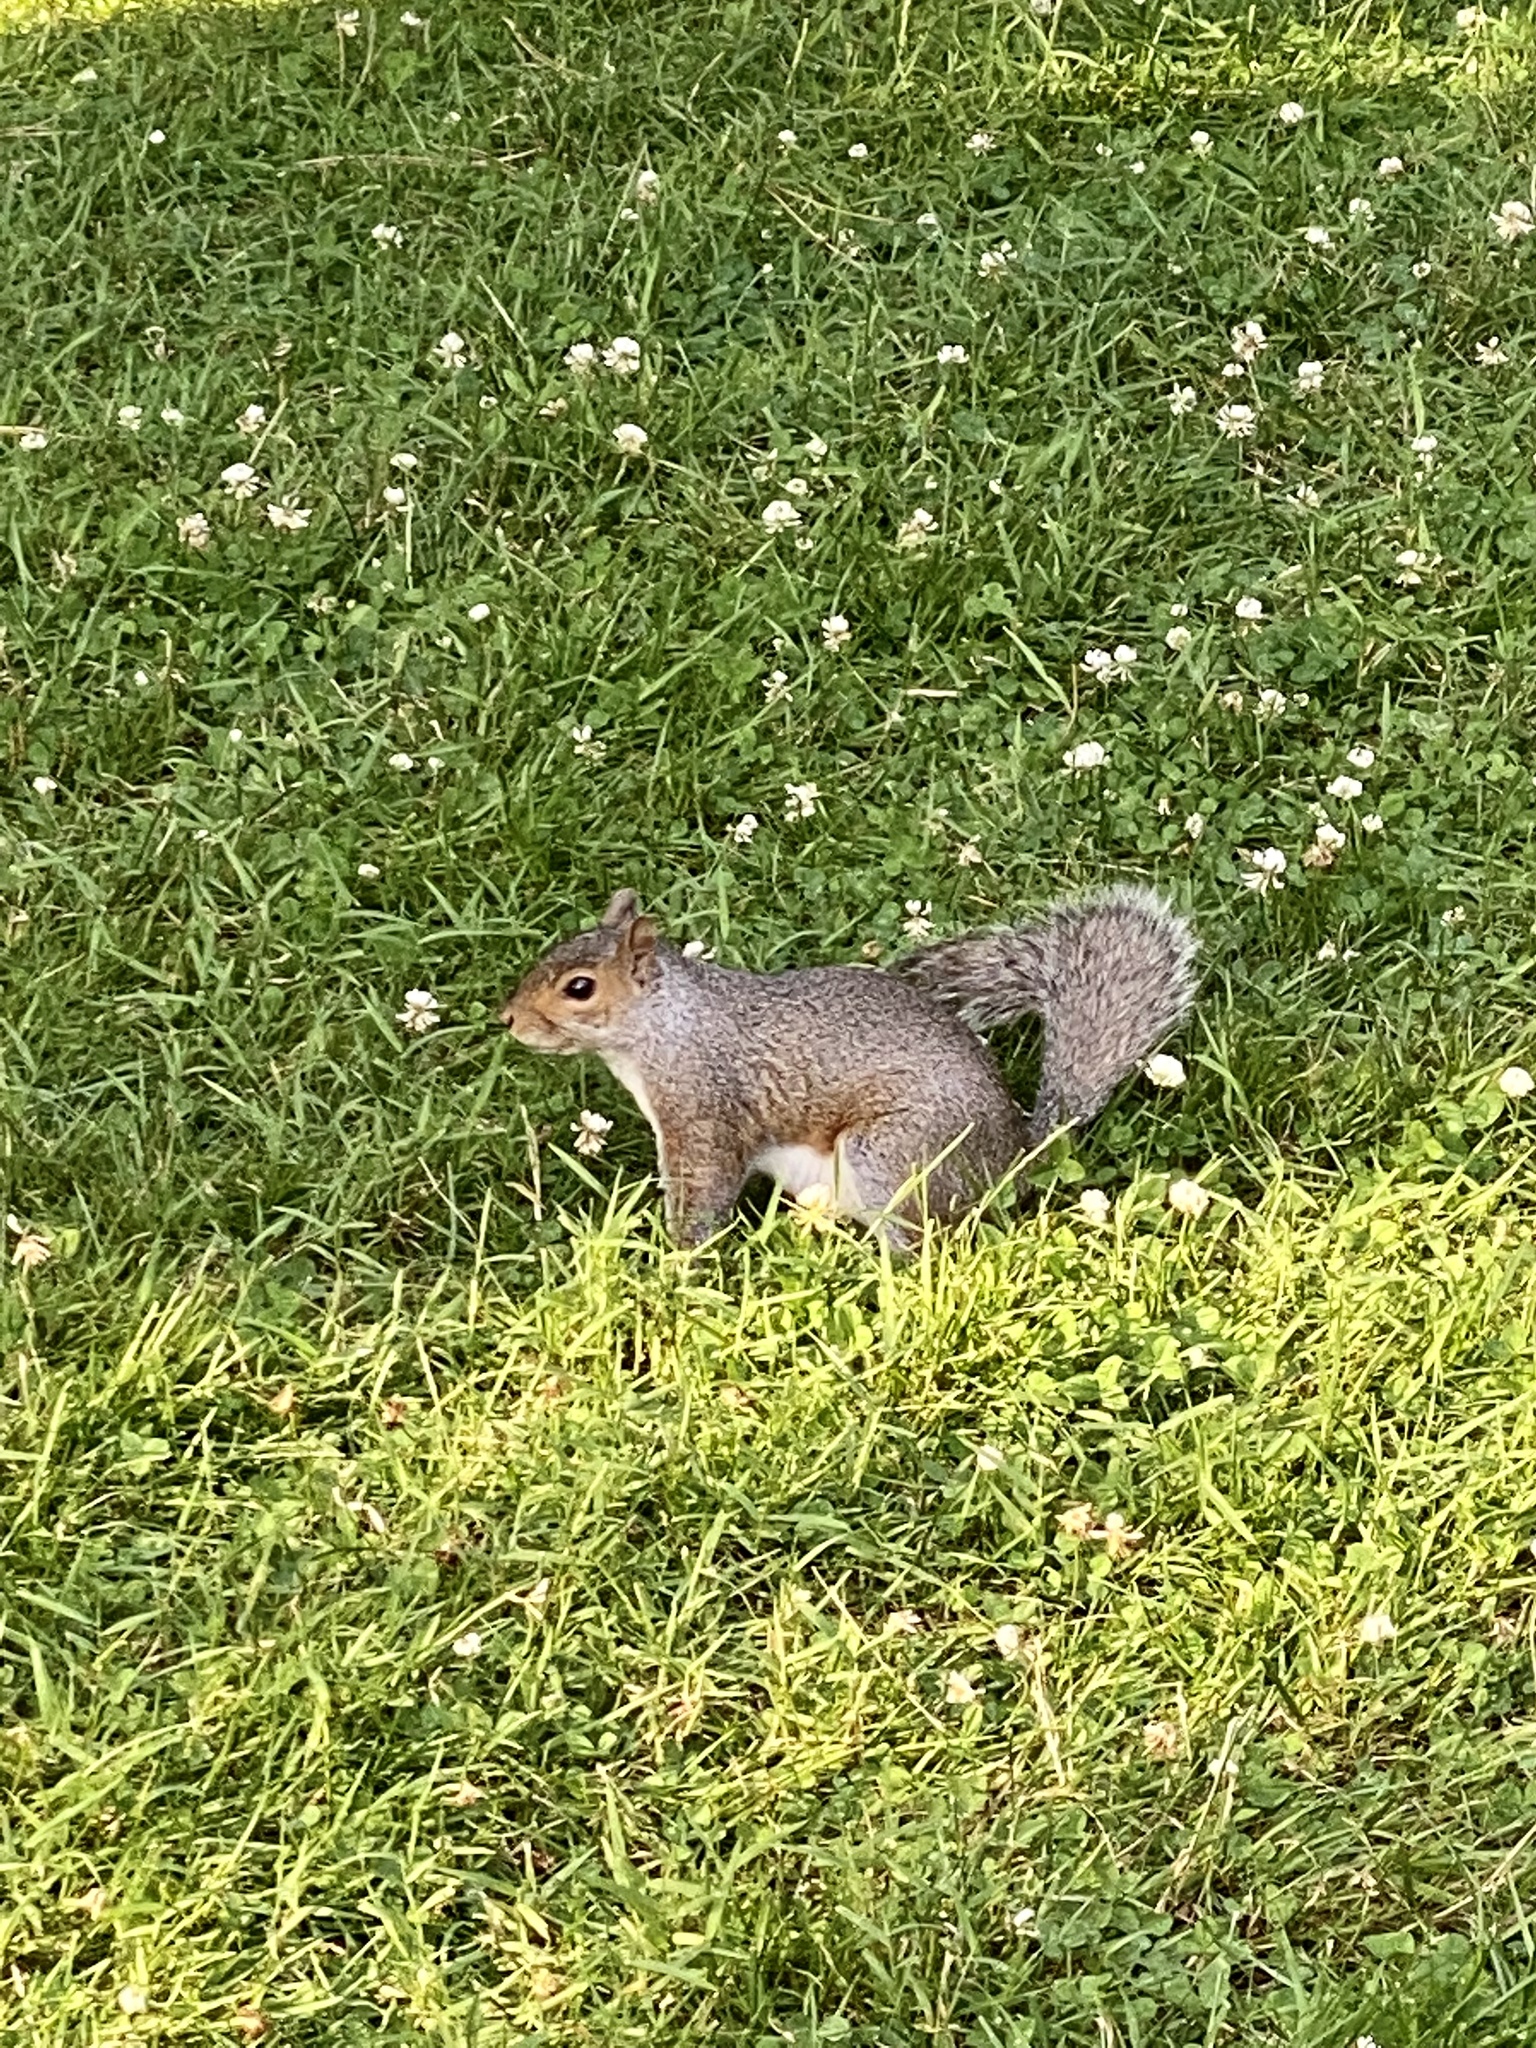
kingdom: Animalia
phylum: Chordata
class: Mammalia
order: Rodentia
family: Sciuridae
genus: Sciurus
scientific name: Sciurus carolinensis
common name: Eastern gray squirrel
